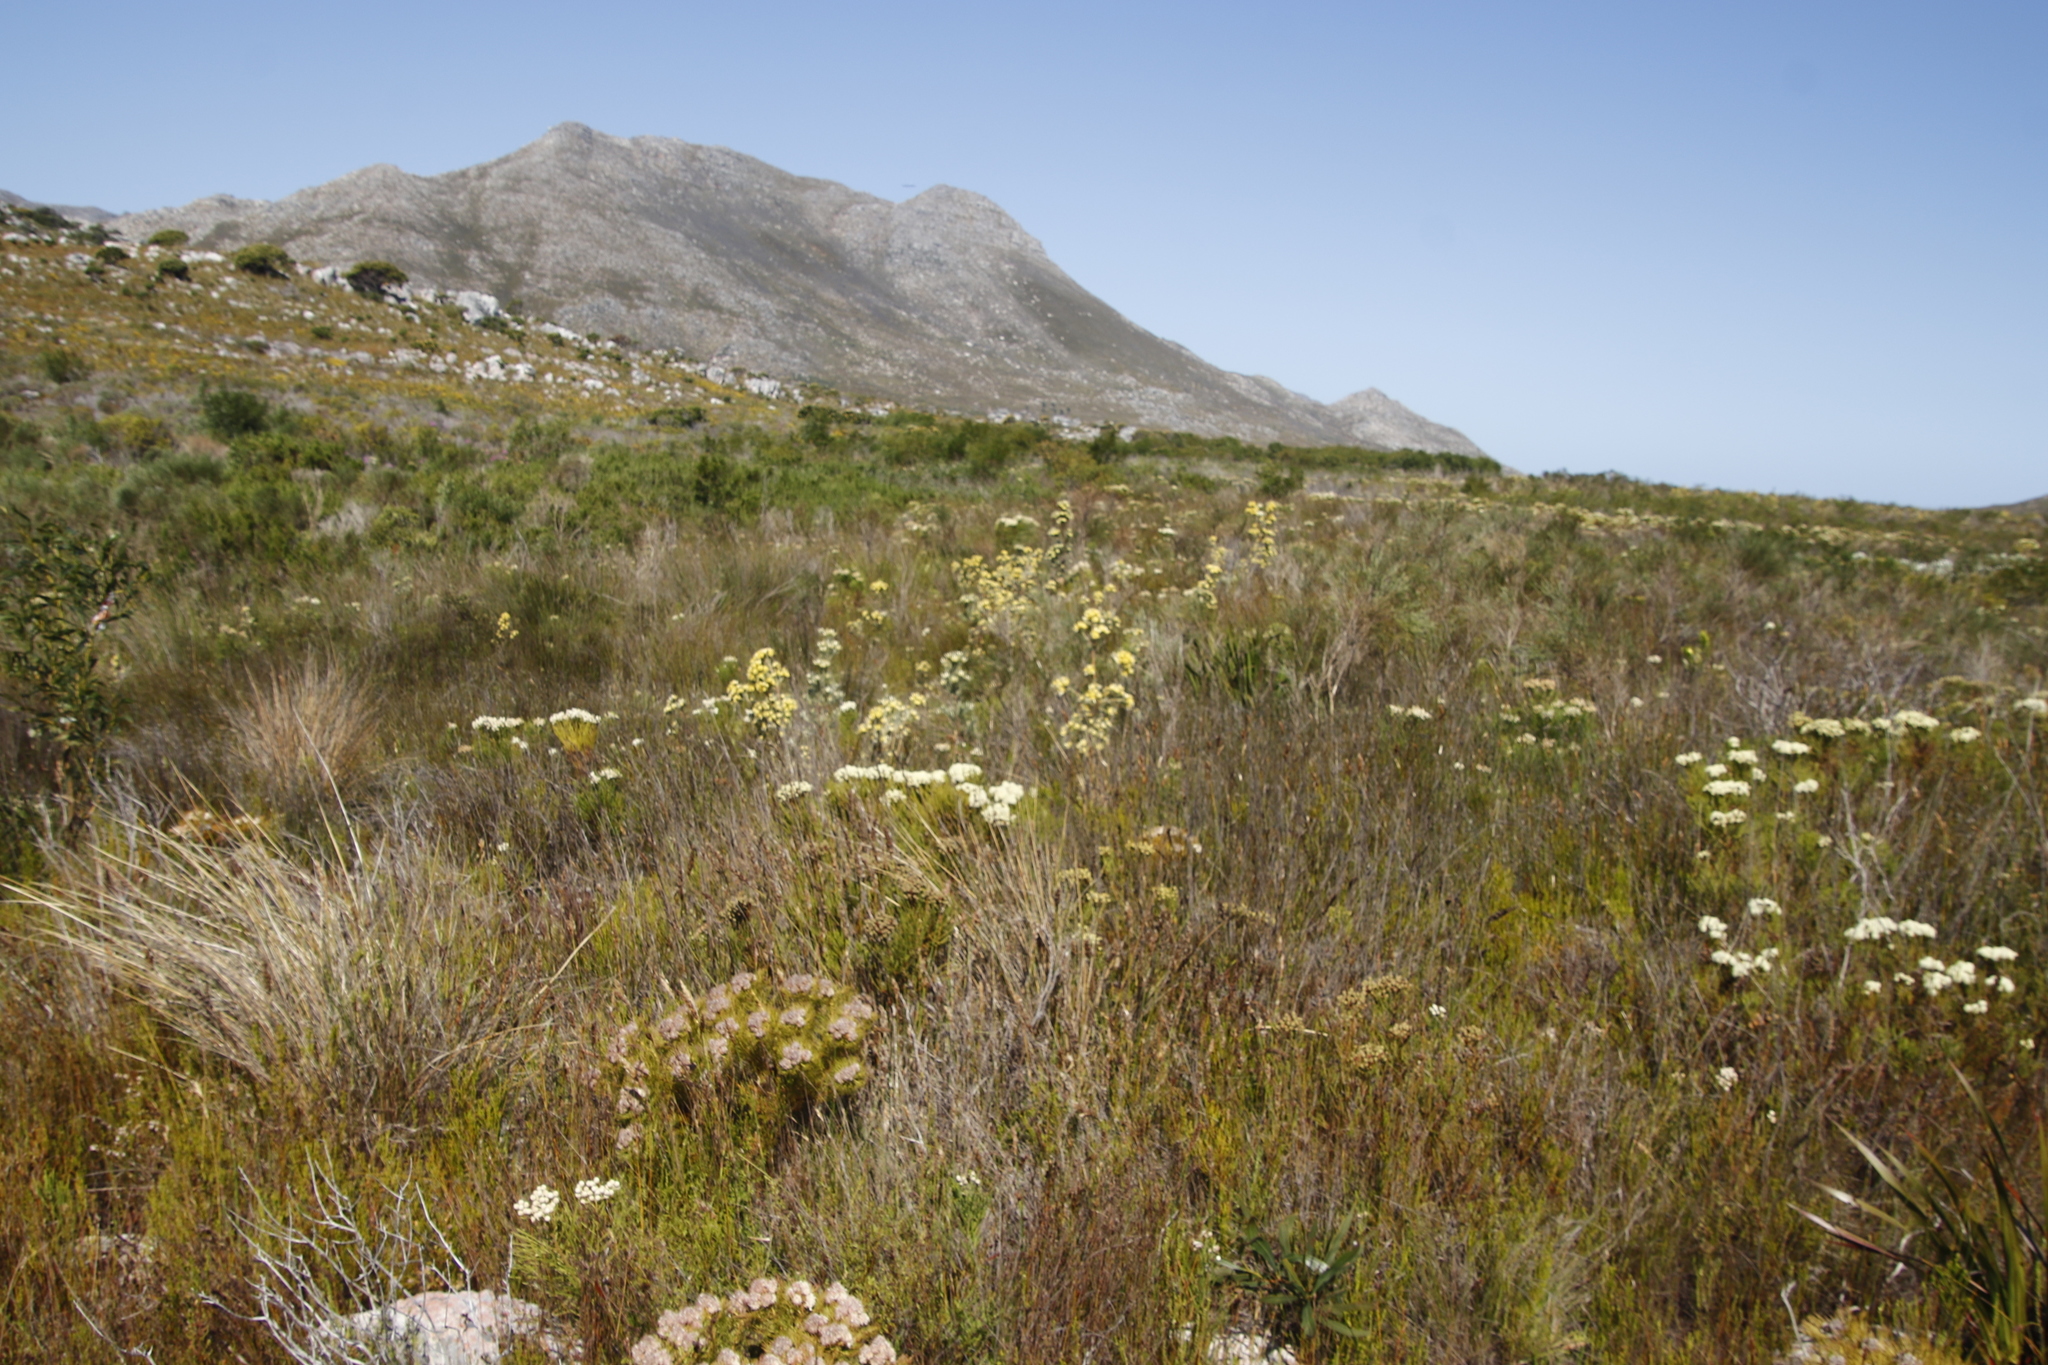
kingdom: Plantae
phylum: Tracheophyta
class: Magnoliopsida
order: Proteales
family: Proteaceae
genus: Leucadendron
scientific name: Leucadendron floridum
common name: Flats conebush
